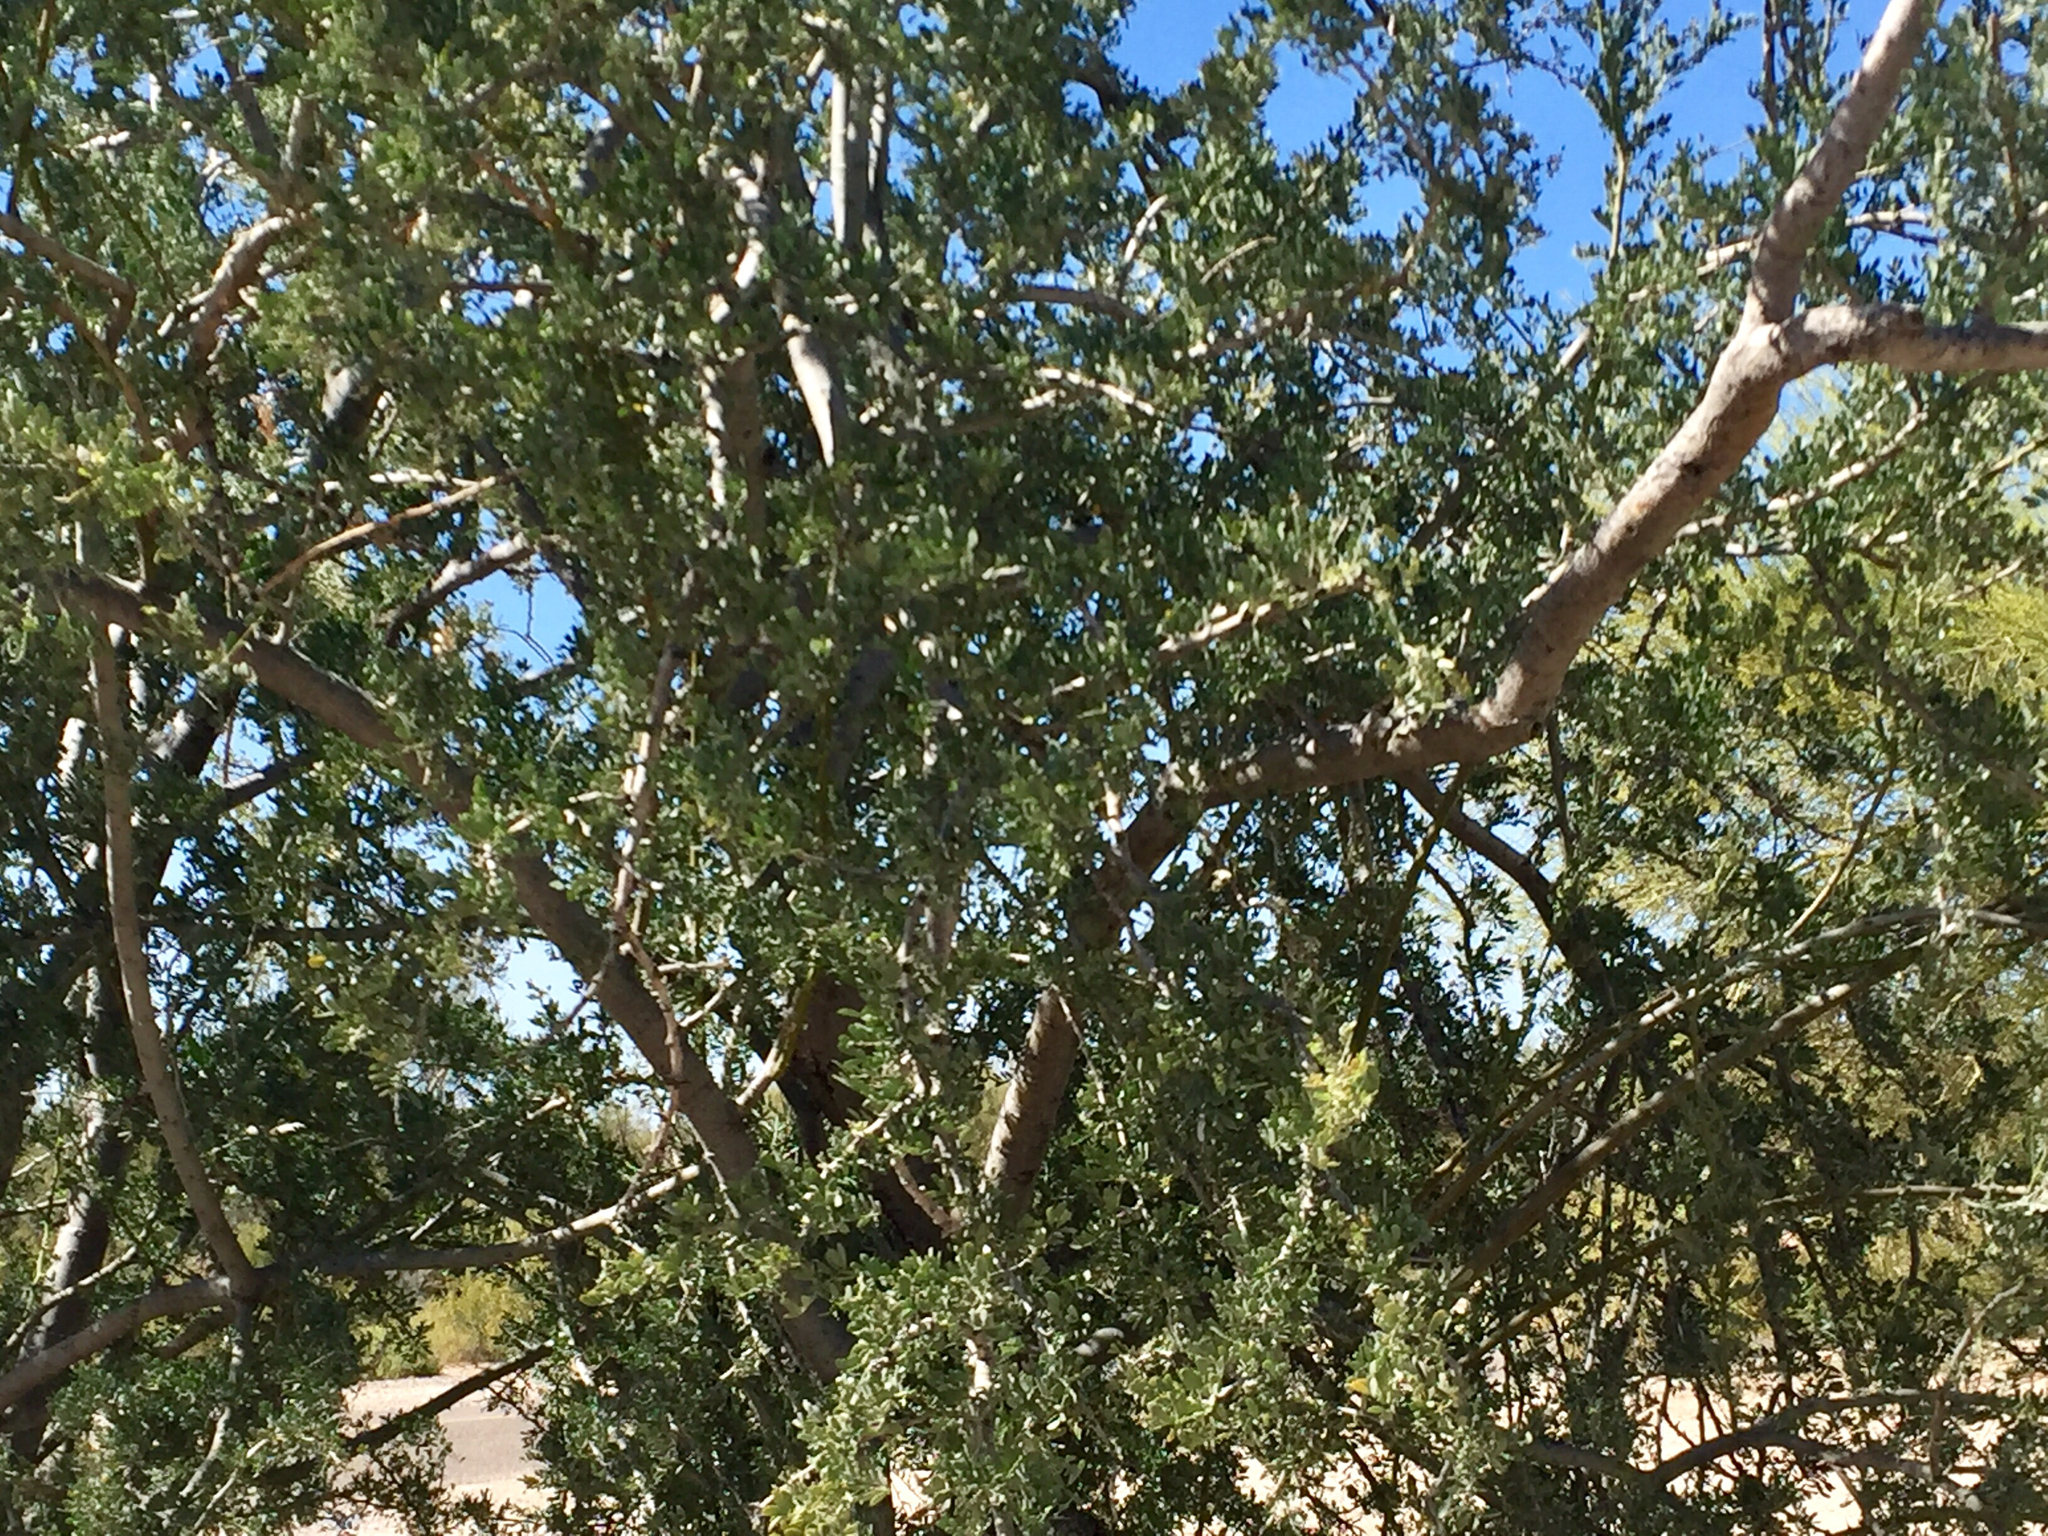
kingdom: Plantae
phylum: Tracheophyta
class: Magnoliopsida
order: Fabales
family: Fabaceae
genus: Olneya
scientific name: Olneya tesota
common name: Desert ironwood
